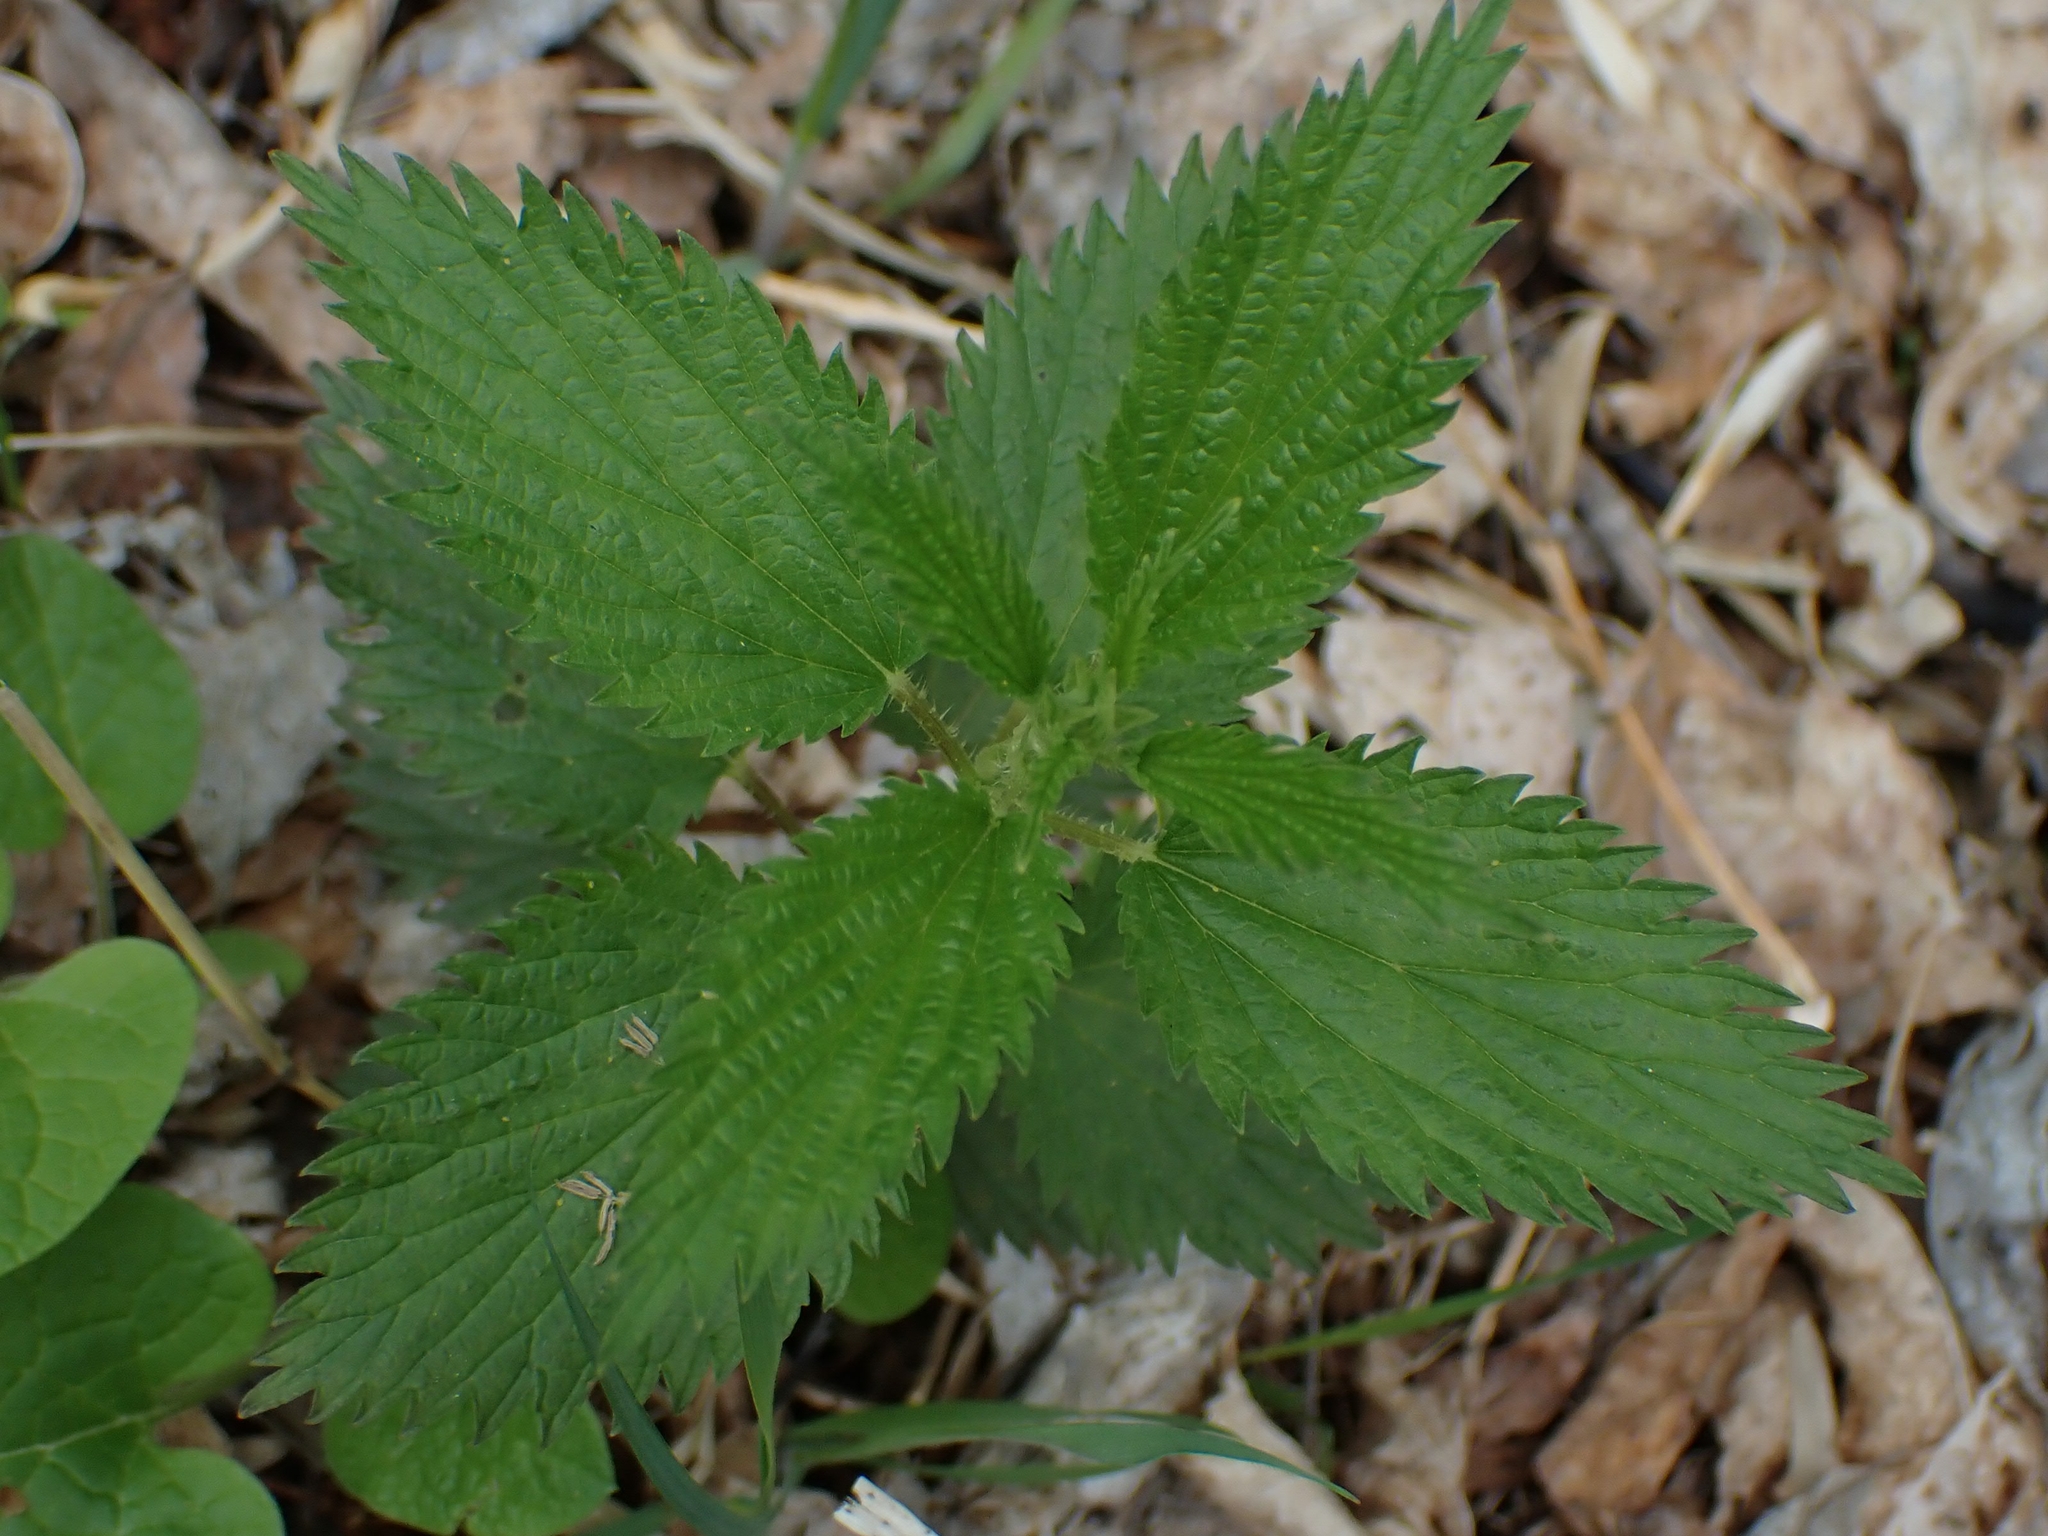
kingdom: Plantae
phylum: Tracheophyta
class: Magnoliopsida
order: Rosales
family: Urticaceae
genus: Urtica
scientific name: Urtica gracilis
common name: Slender stinging nettle
